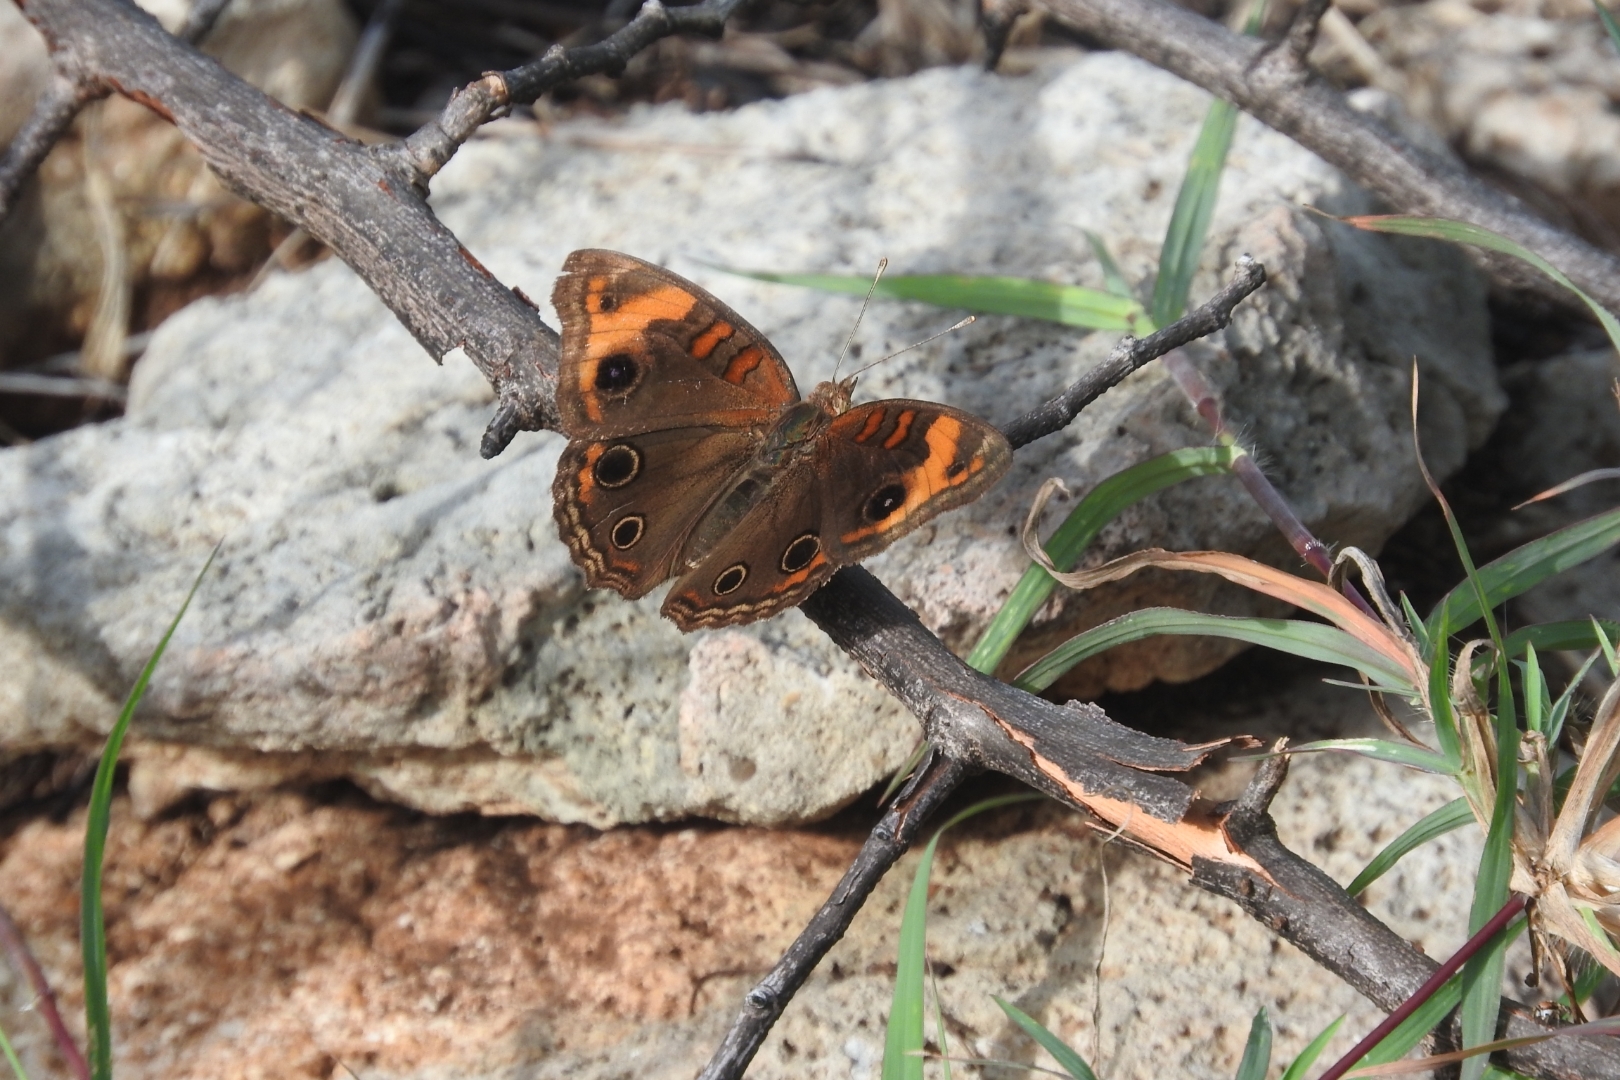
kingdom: Animalia
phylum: Arthropoda
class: Insecta
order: Lepidoptera
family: Nymphalidae
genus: Junonia
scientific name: Junonia lavinia
